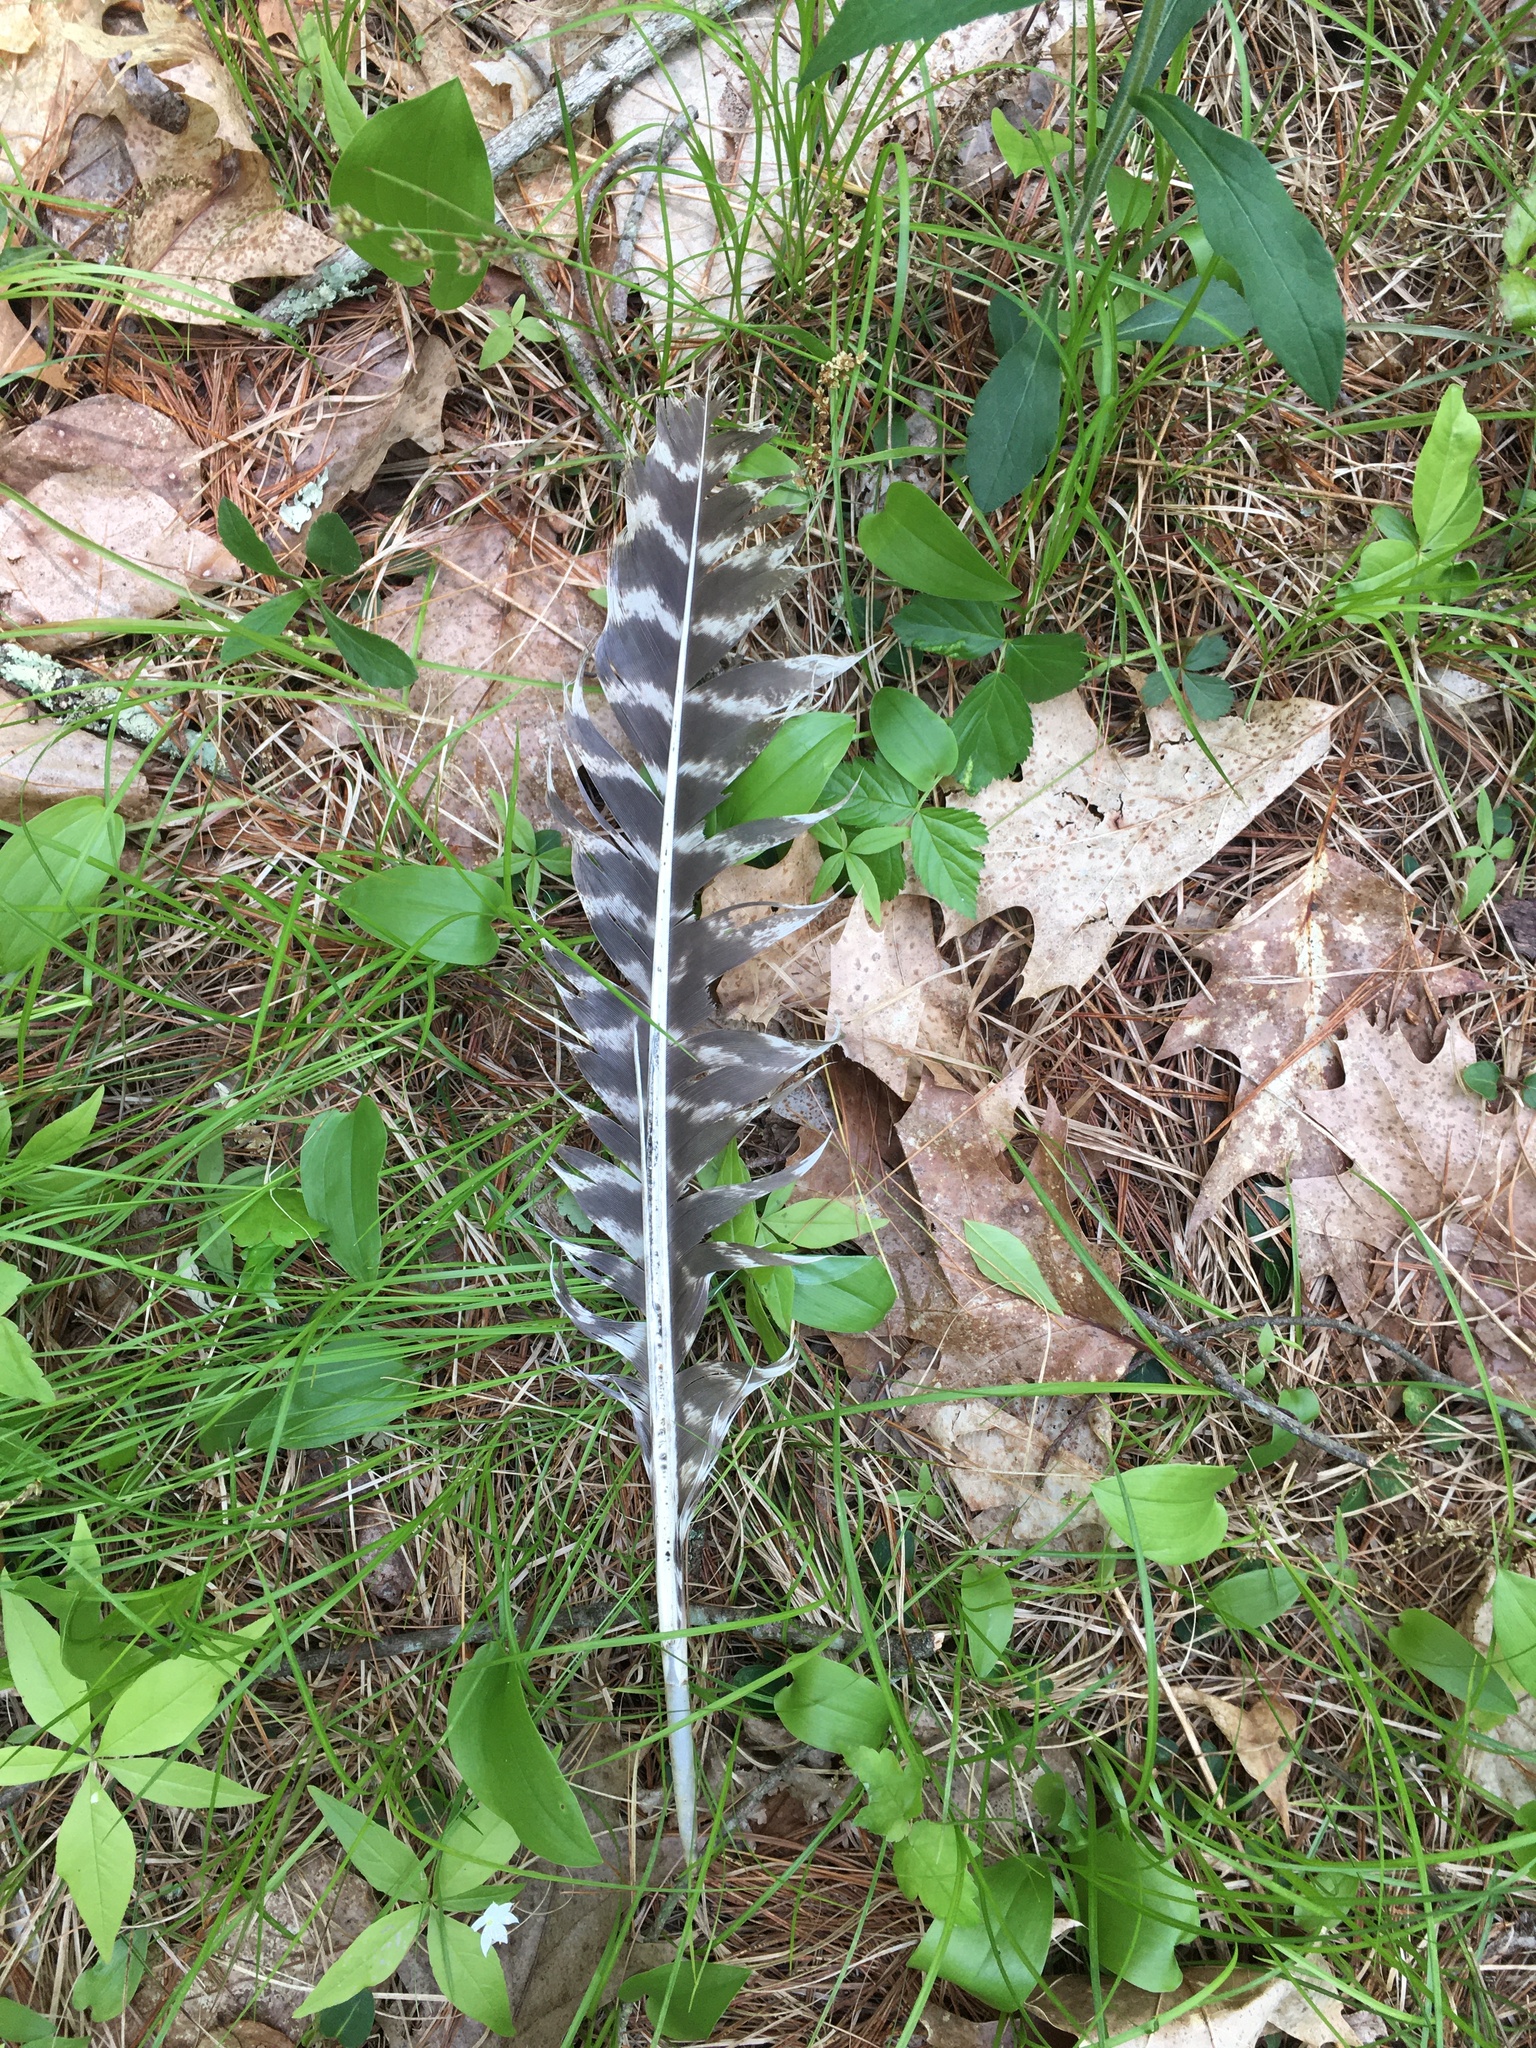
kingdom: Animalia
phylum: Chordata
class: Aves
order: Galliformes
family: Phasianidae
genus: Meleagris
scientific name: Meleagris gallopavo
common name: Wild turkey
